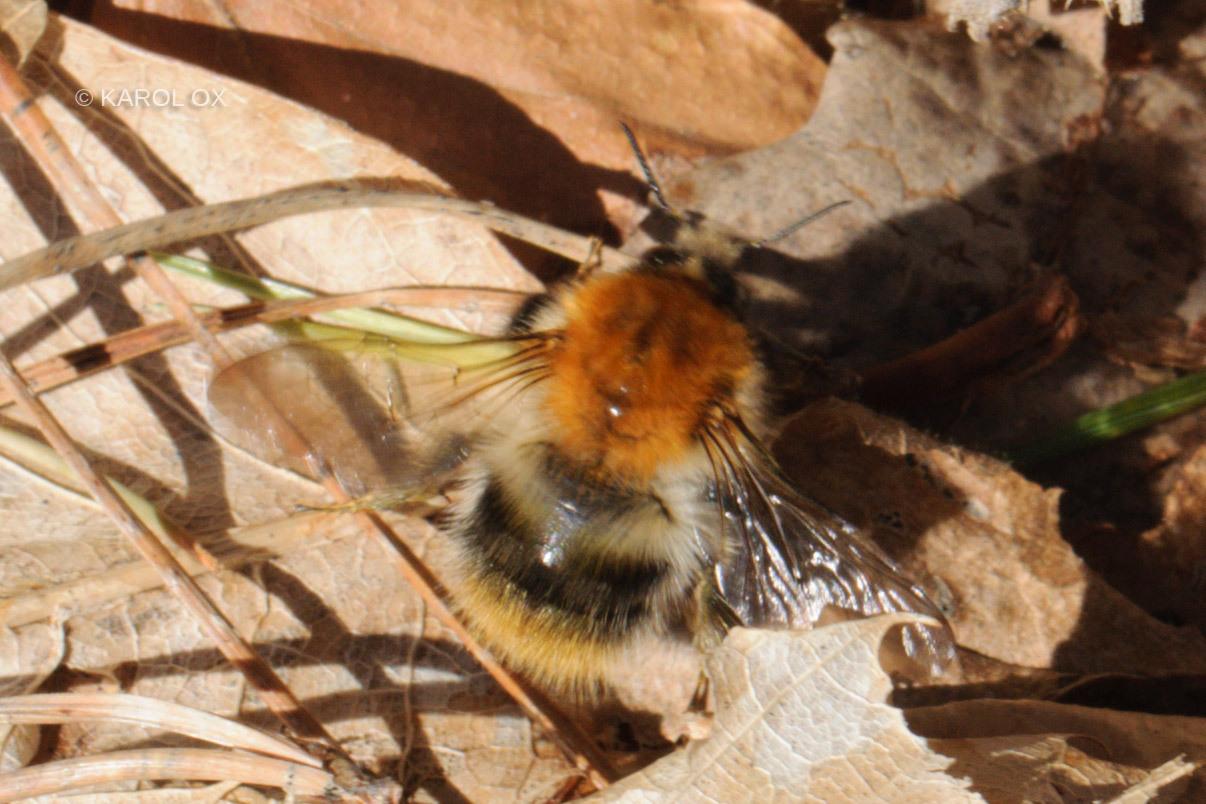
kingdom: Animalia
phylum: Arthropoda
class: Insecta
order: Hymenoptera
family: Apidae
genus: Bombus
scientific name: Bombus pascuorum
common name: Common carder bee
